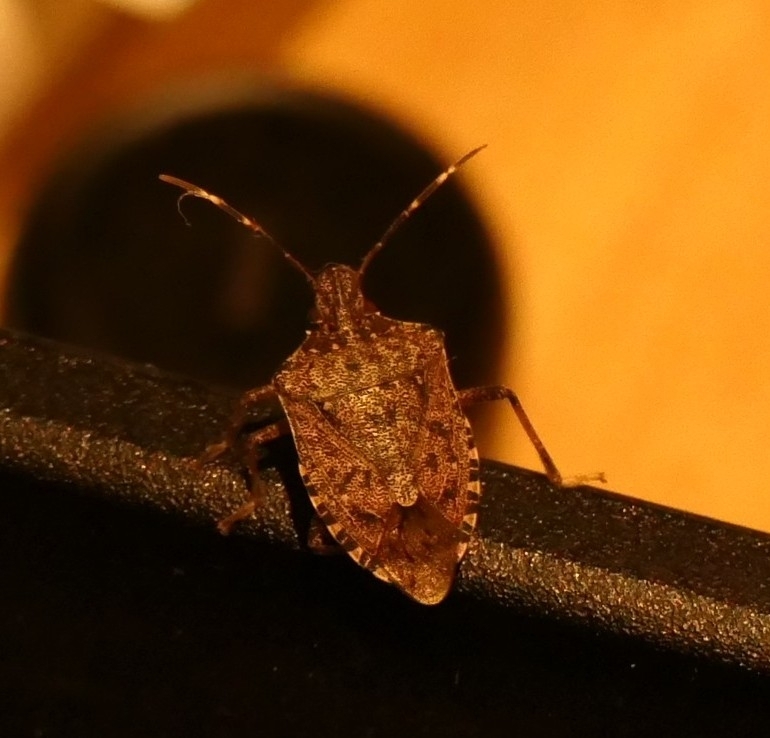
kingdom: Animalia
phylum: Arthropoda
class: Insecta
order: Hemiptera
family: Pentatomidae
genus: Halyomorpha
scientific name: Halyomorpha halys
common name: Brown marmorated stink bug
